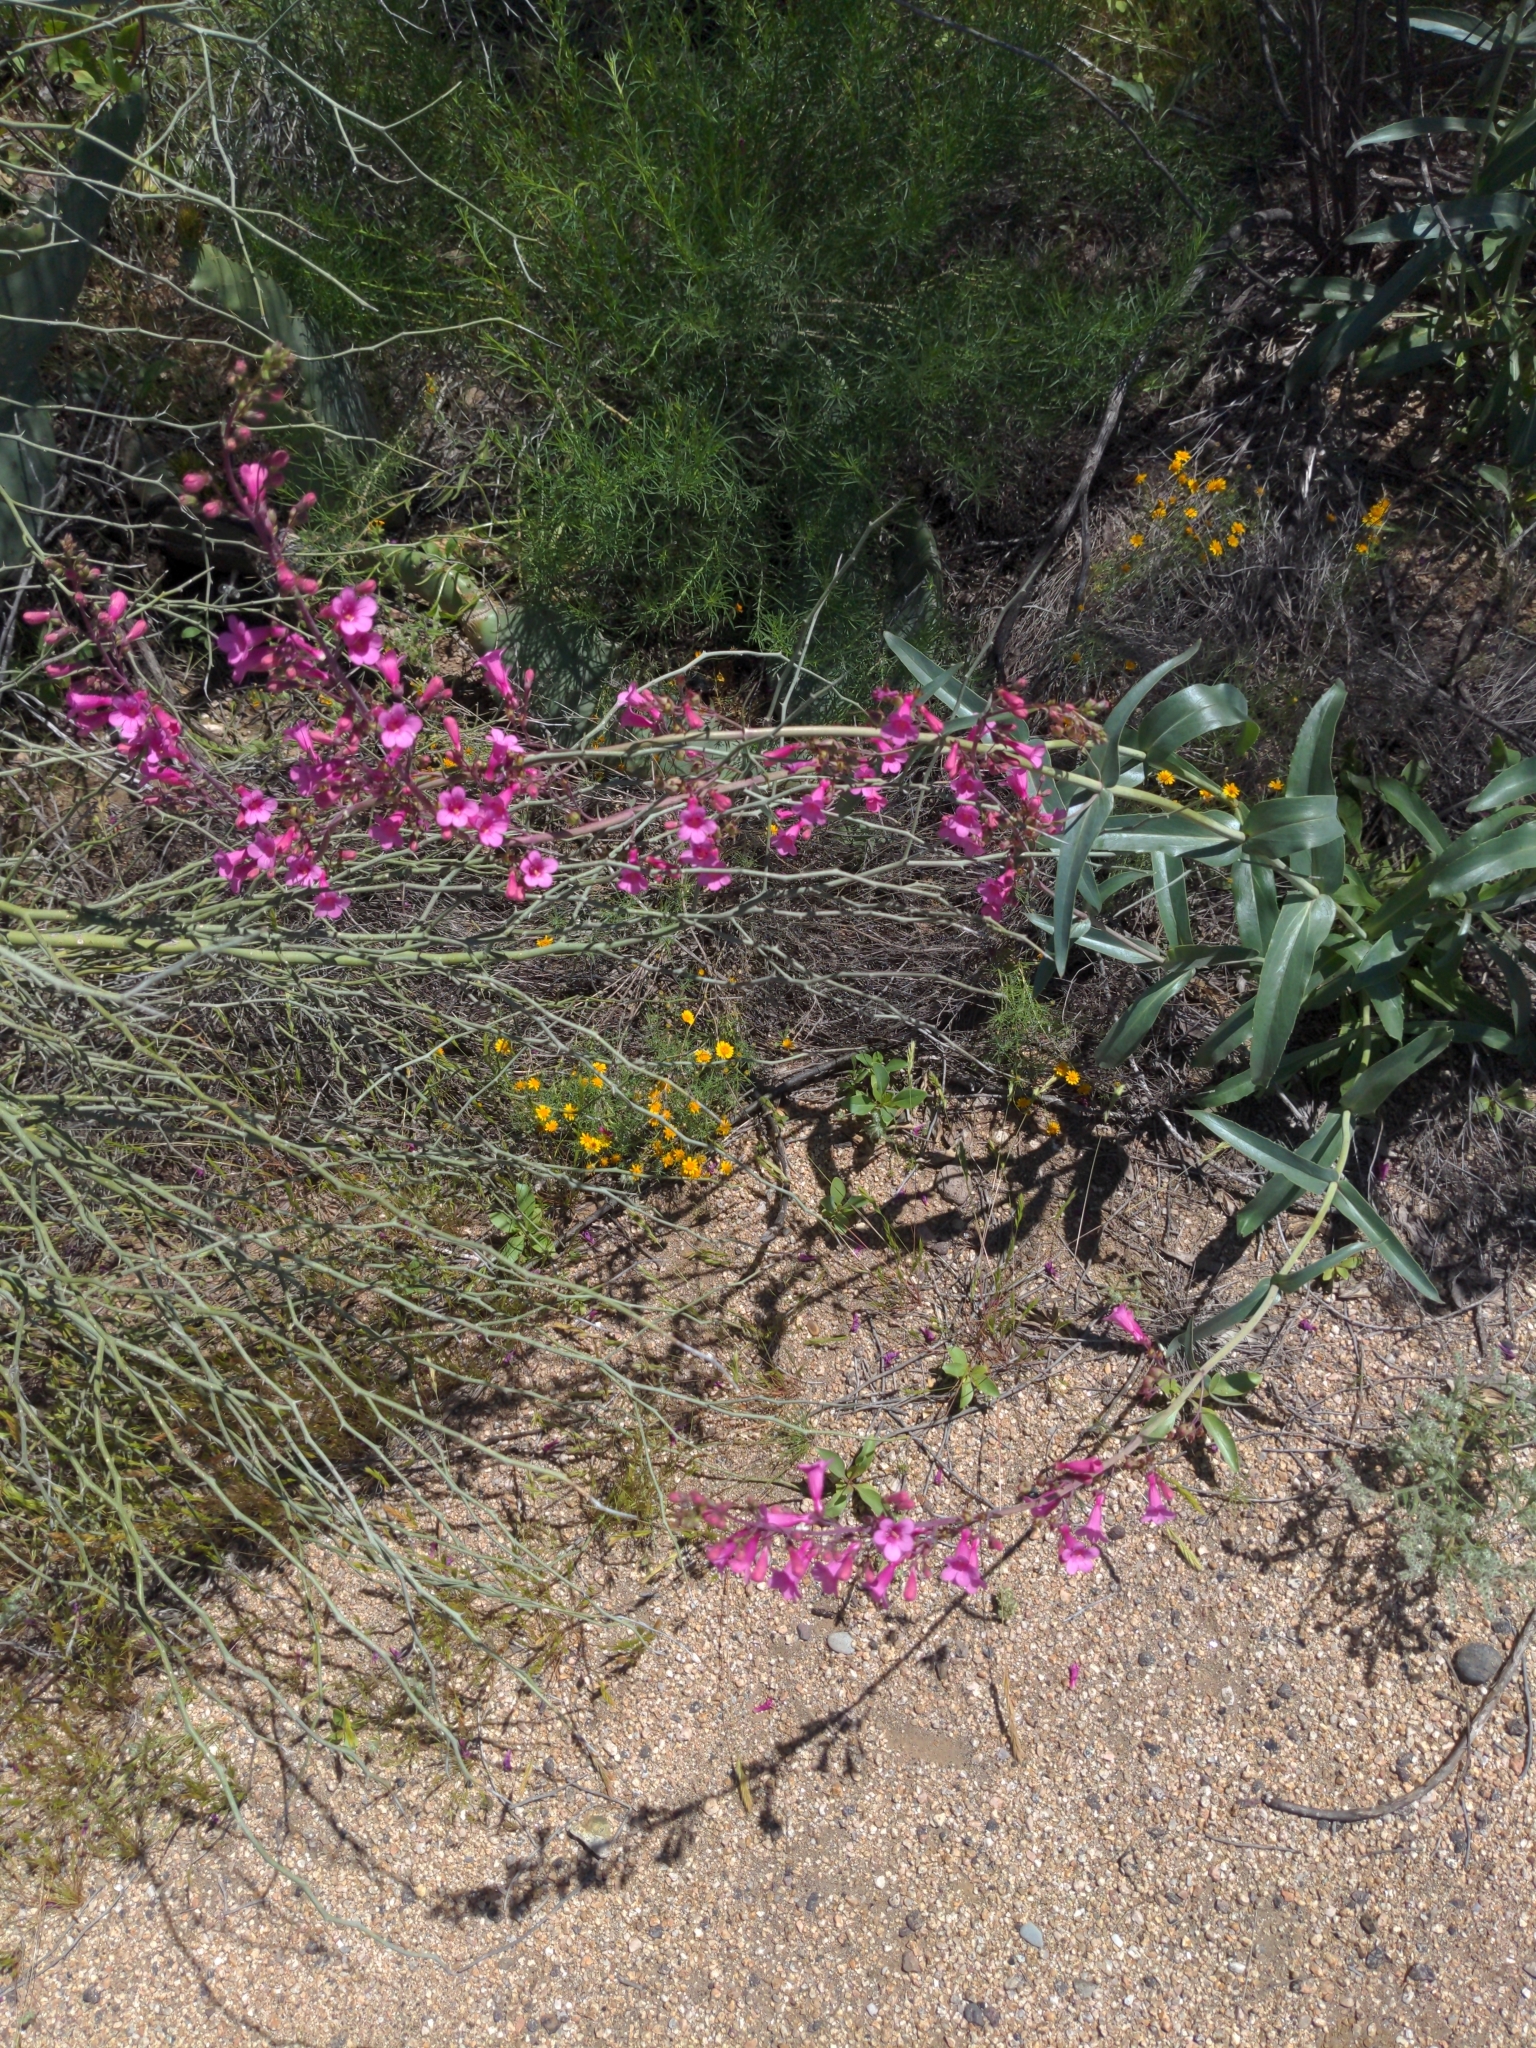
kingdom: Plantae
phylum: Tracheophyta
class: Magnoliopsida
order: Lamiales
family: Plantaginaceae
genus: Penstemon
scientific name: Penstemon parryi
